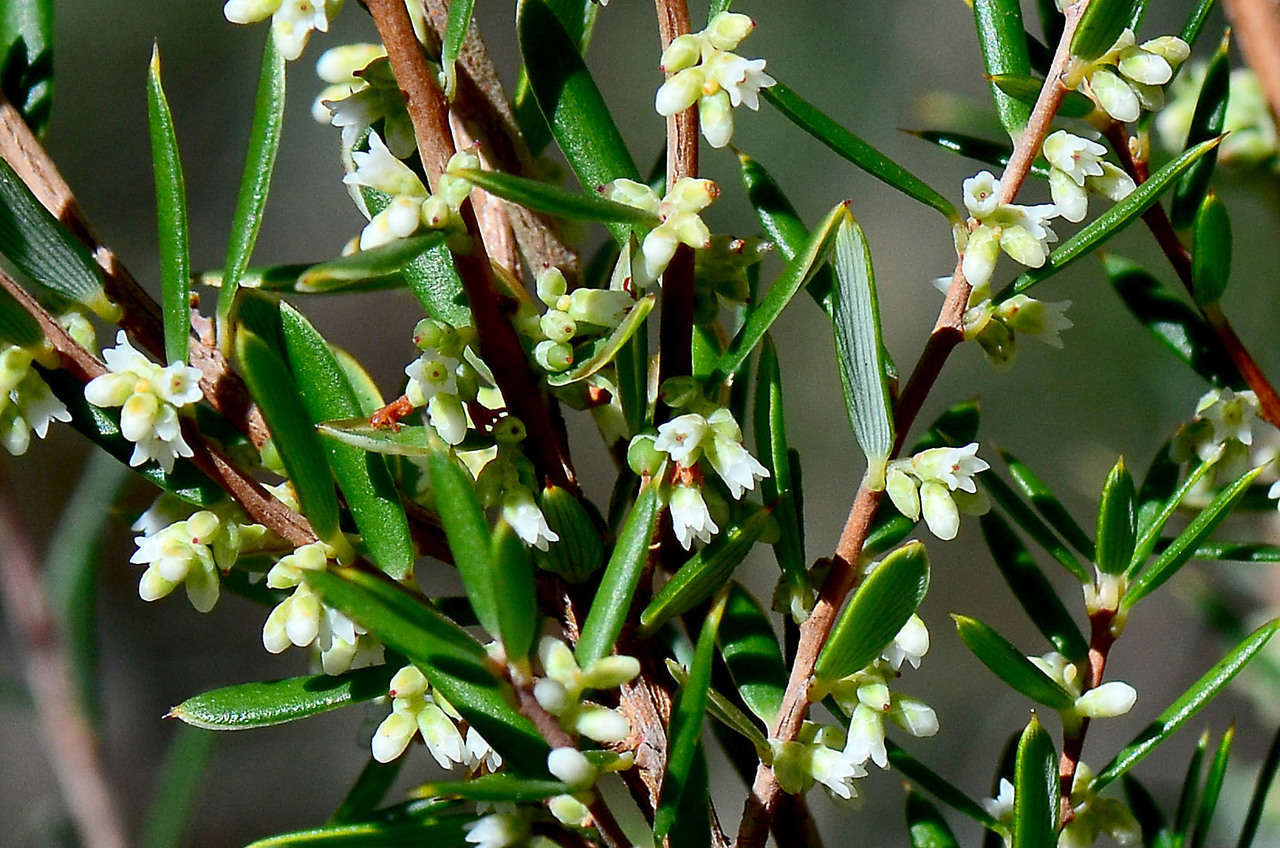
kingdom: Plantae
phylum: Tracheophyta
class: Magnoliopsida
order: Ericales
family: Ericaceae
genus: Monotoca
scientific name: Monotoca scoparia
